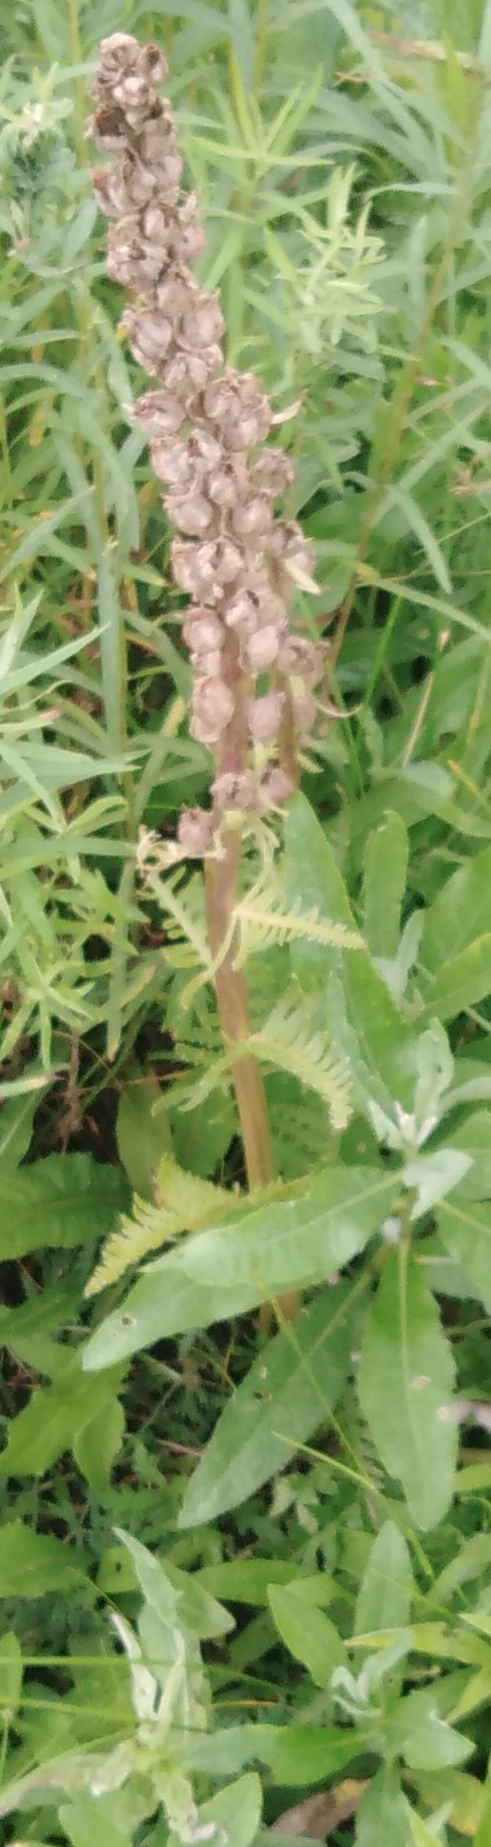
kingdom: Plantae
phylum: Tracheophyta
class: Magnoliopsida
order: Lamiales
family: Orobanchaceae
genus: Pedicularis
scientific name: Pedicularis kaufmannii
